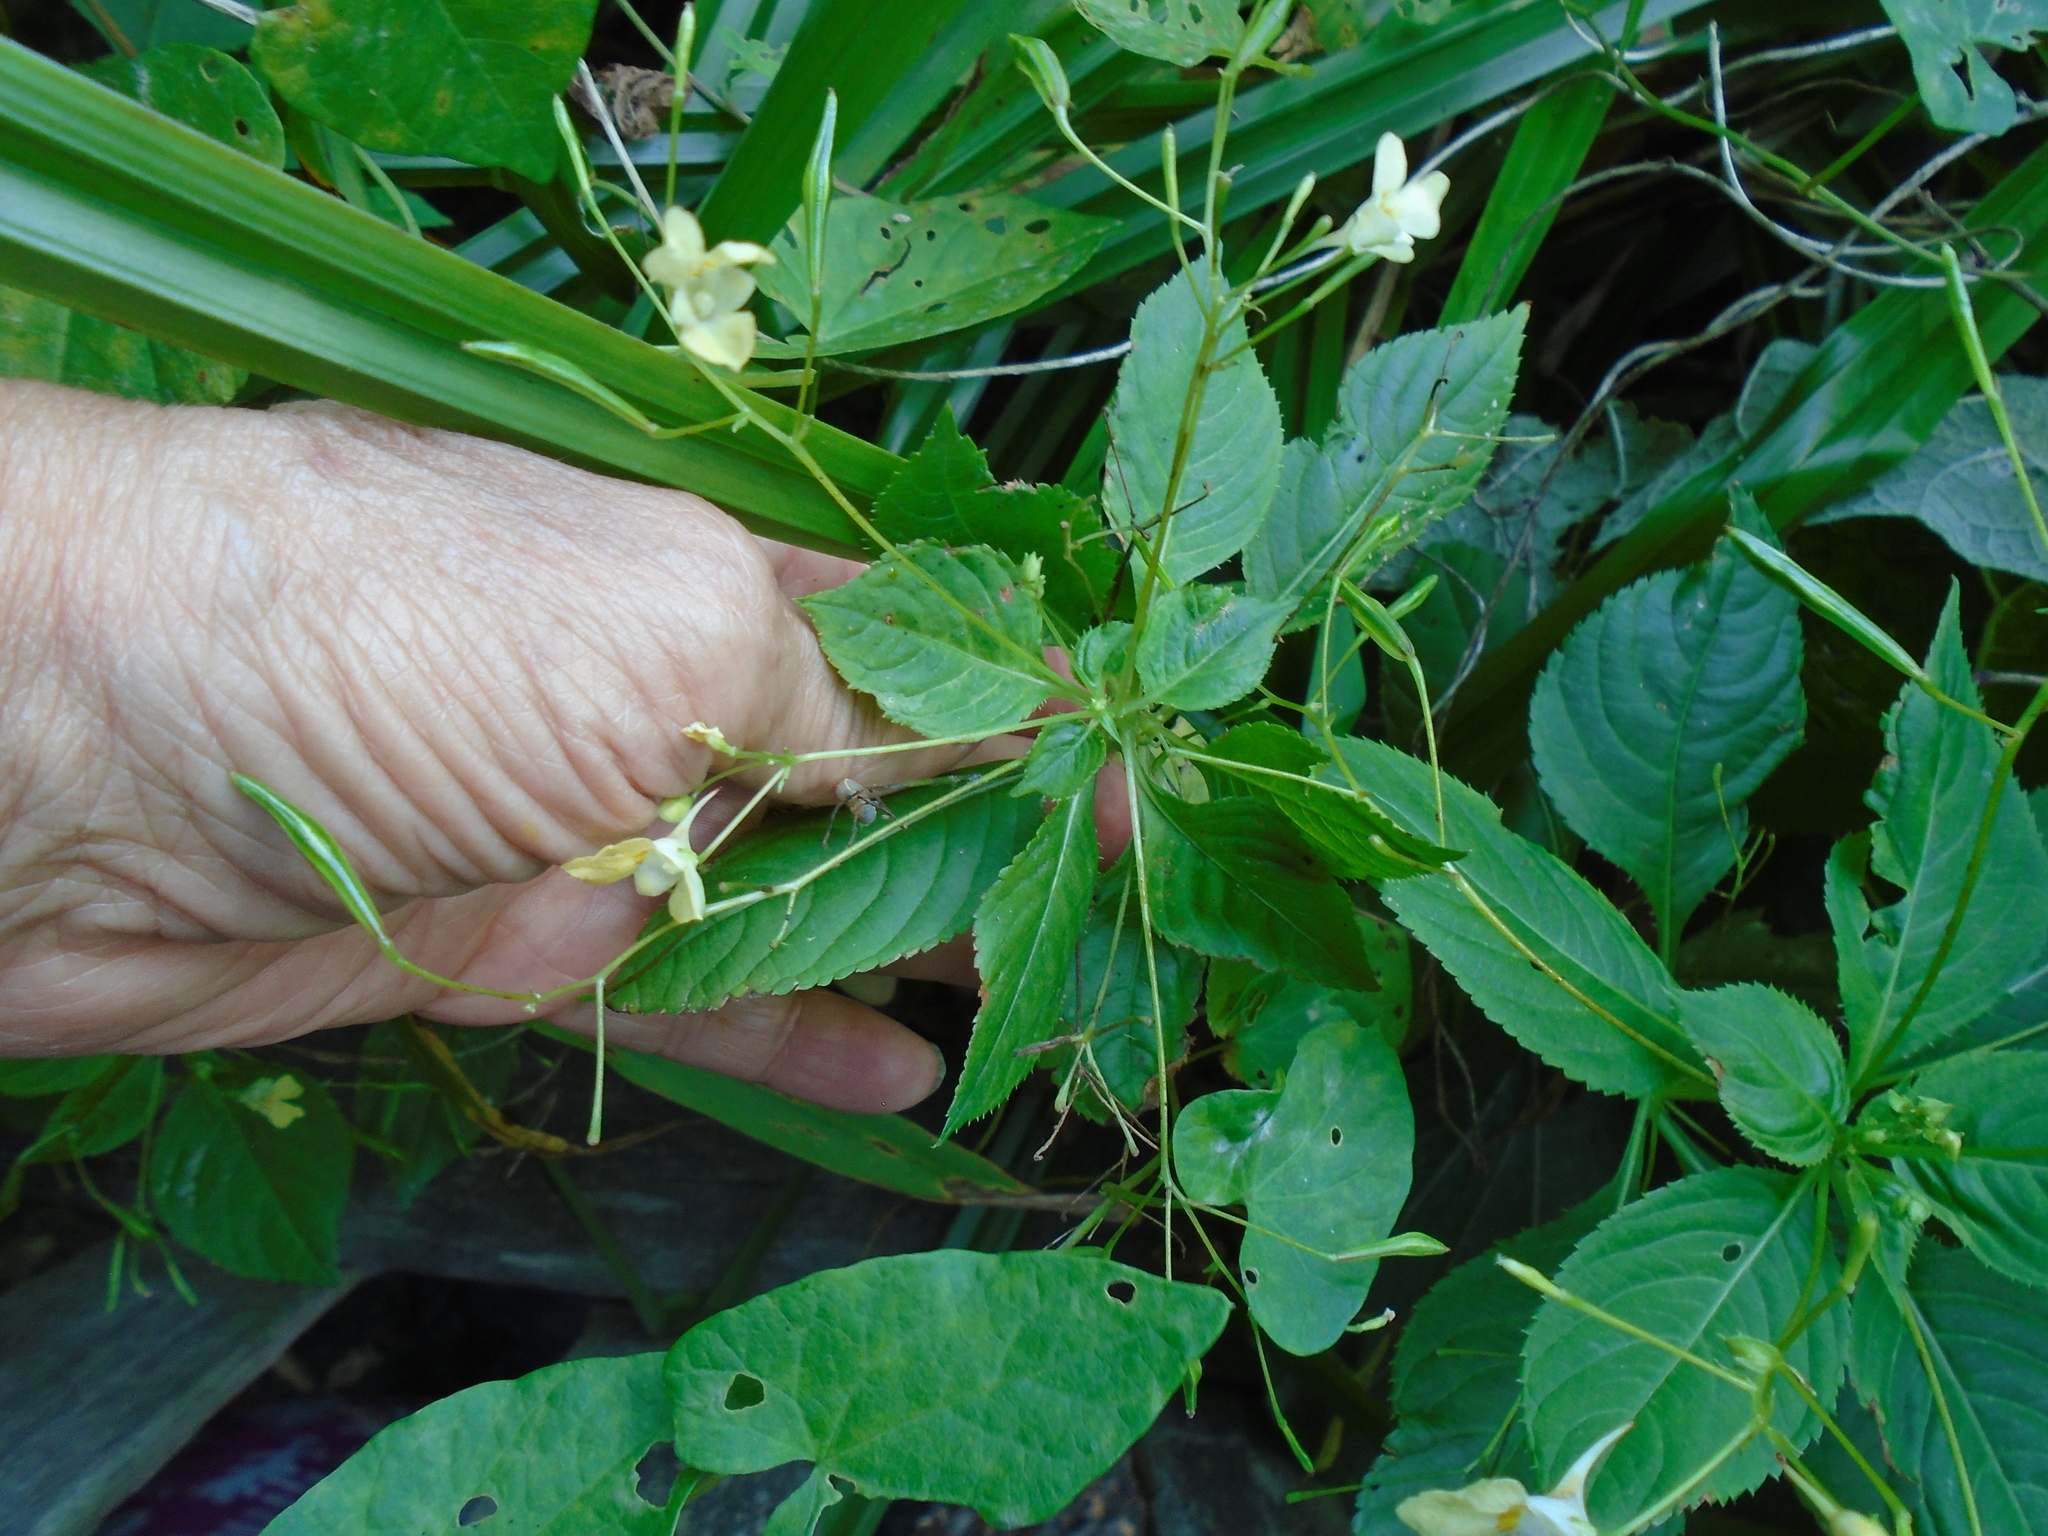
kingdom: Plantae
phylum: Tracheophyta
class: Magnoliopsida
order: Ericales
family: Balsaminaceae
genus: Impatiens
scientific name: Impatiens parviflora
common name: Small balsam
